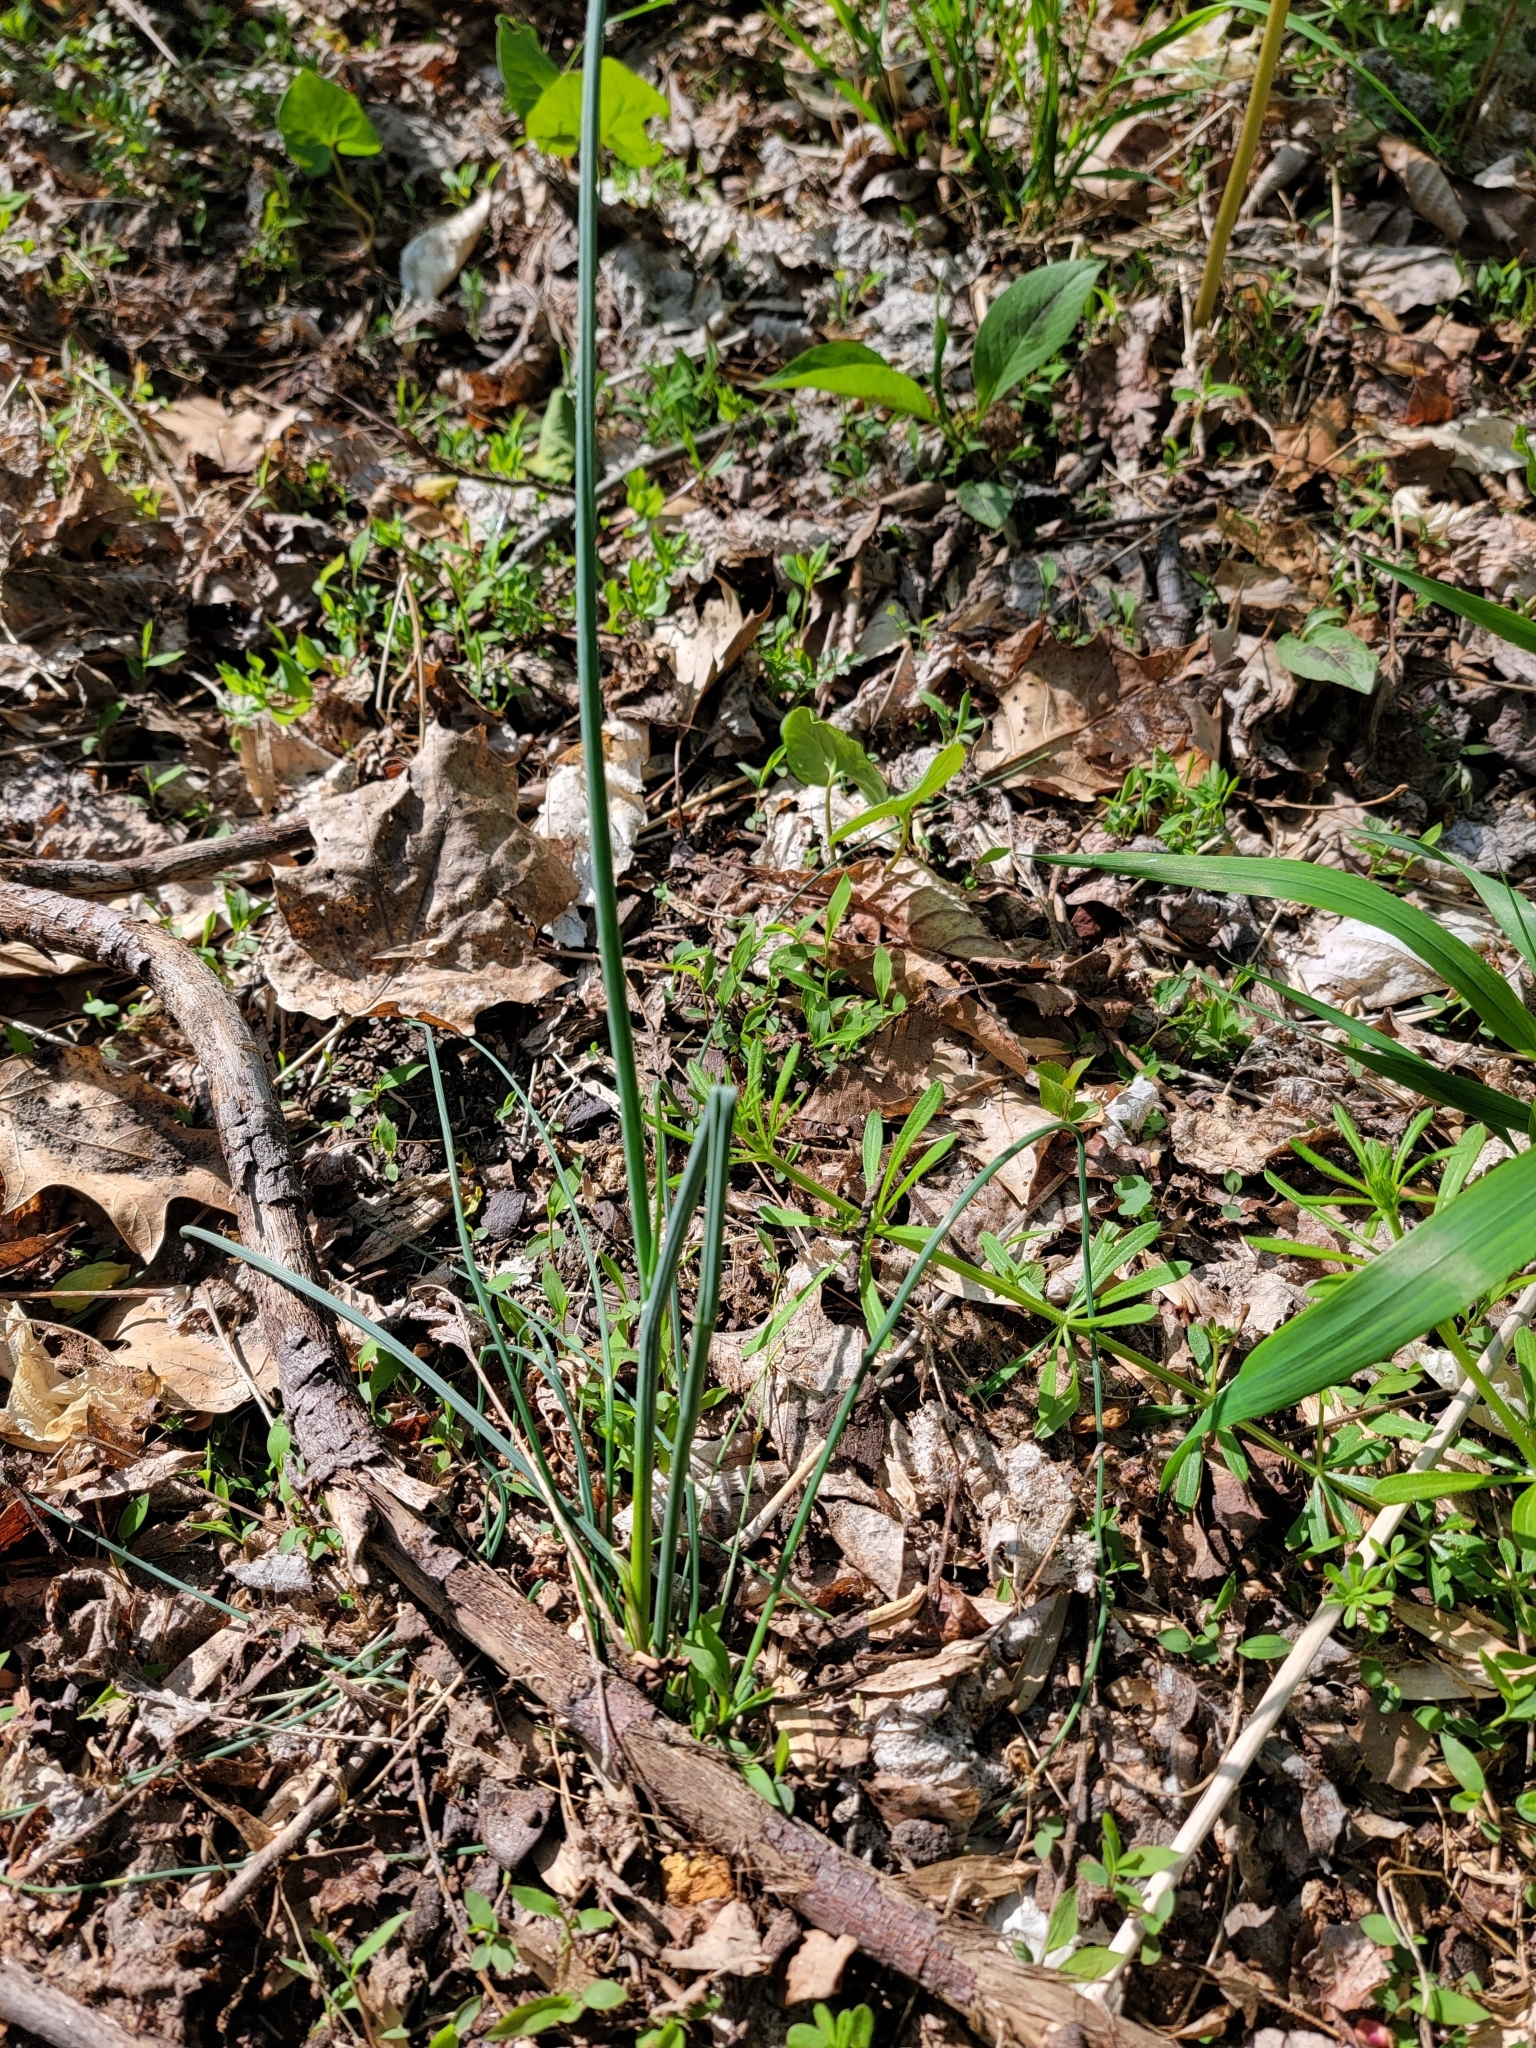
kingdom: Plantae
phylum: Tracheophyta
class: Liliopsida
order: Asparagales
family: Amaryllidaceae
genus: Allium
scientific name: Allium vineale
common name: Crow garlic
